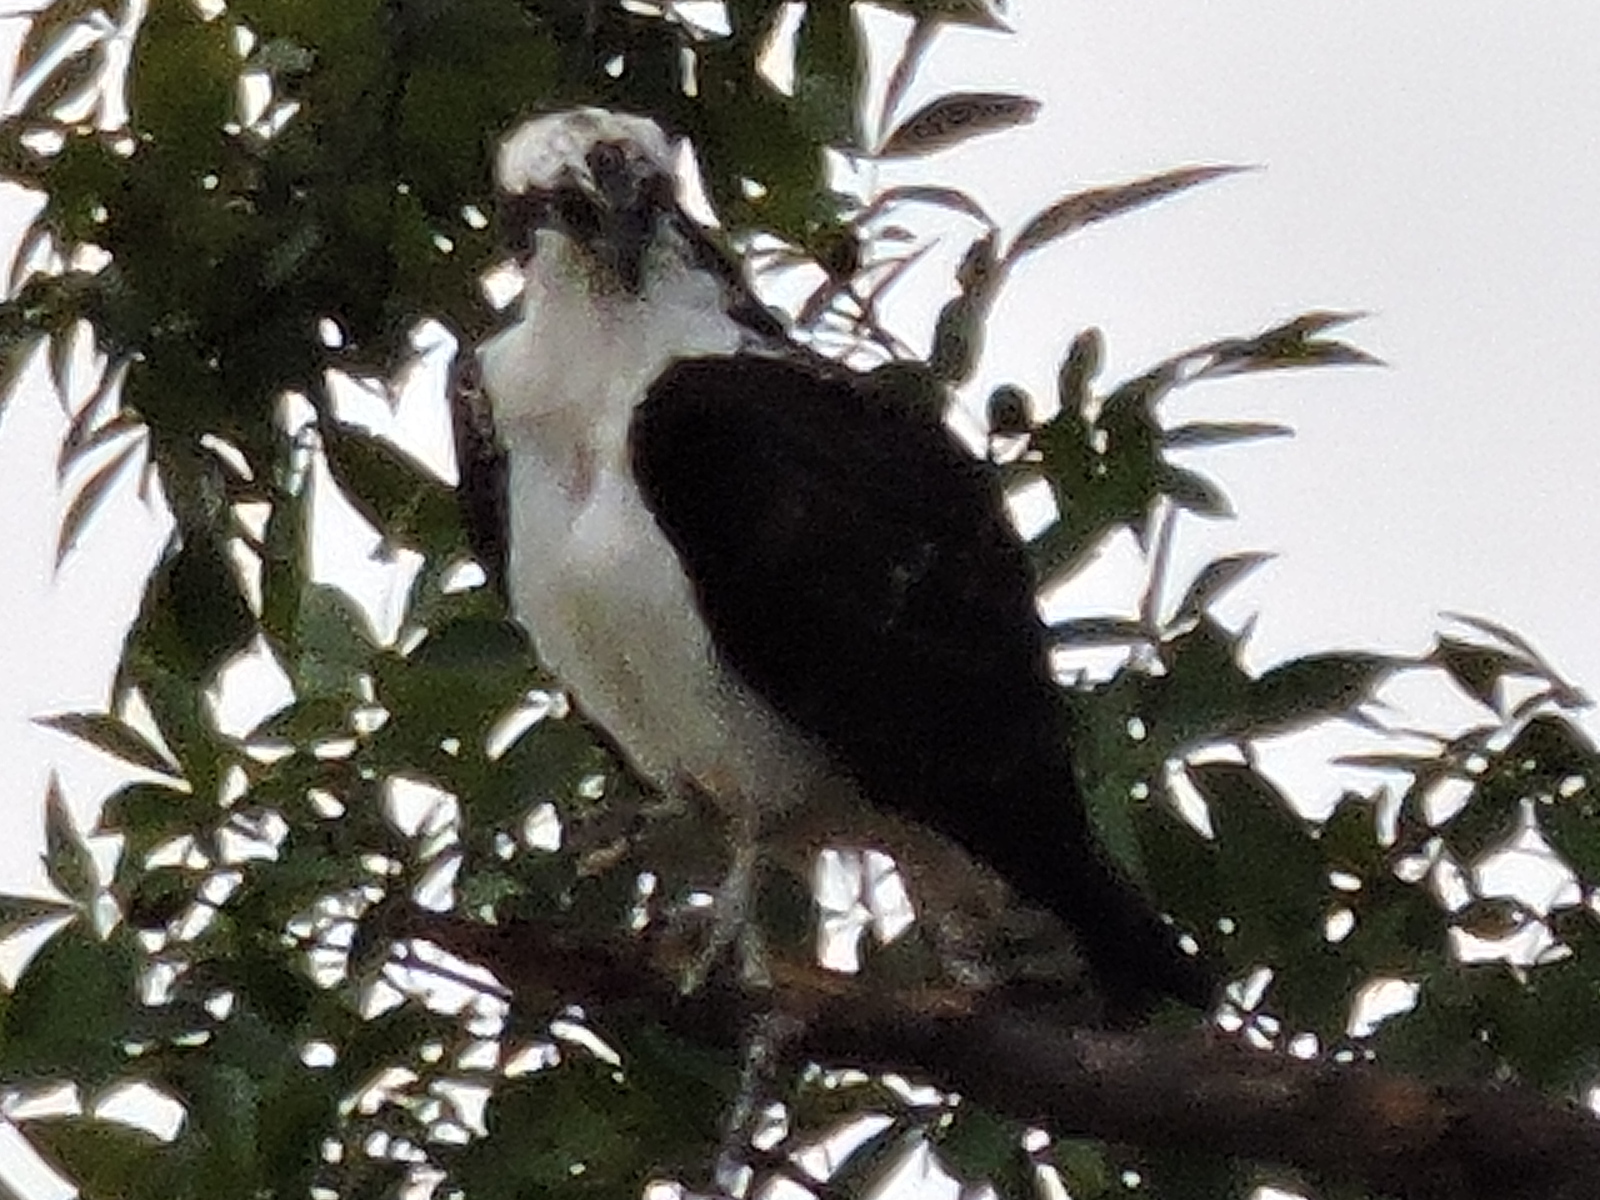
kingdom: Animalia
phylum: Chordata
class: Aves
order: Accipitriformes
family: Pandionidae
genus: Pandion
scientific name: Pandion haliaetus
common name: Osprey
